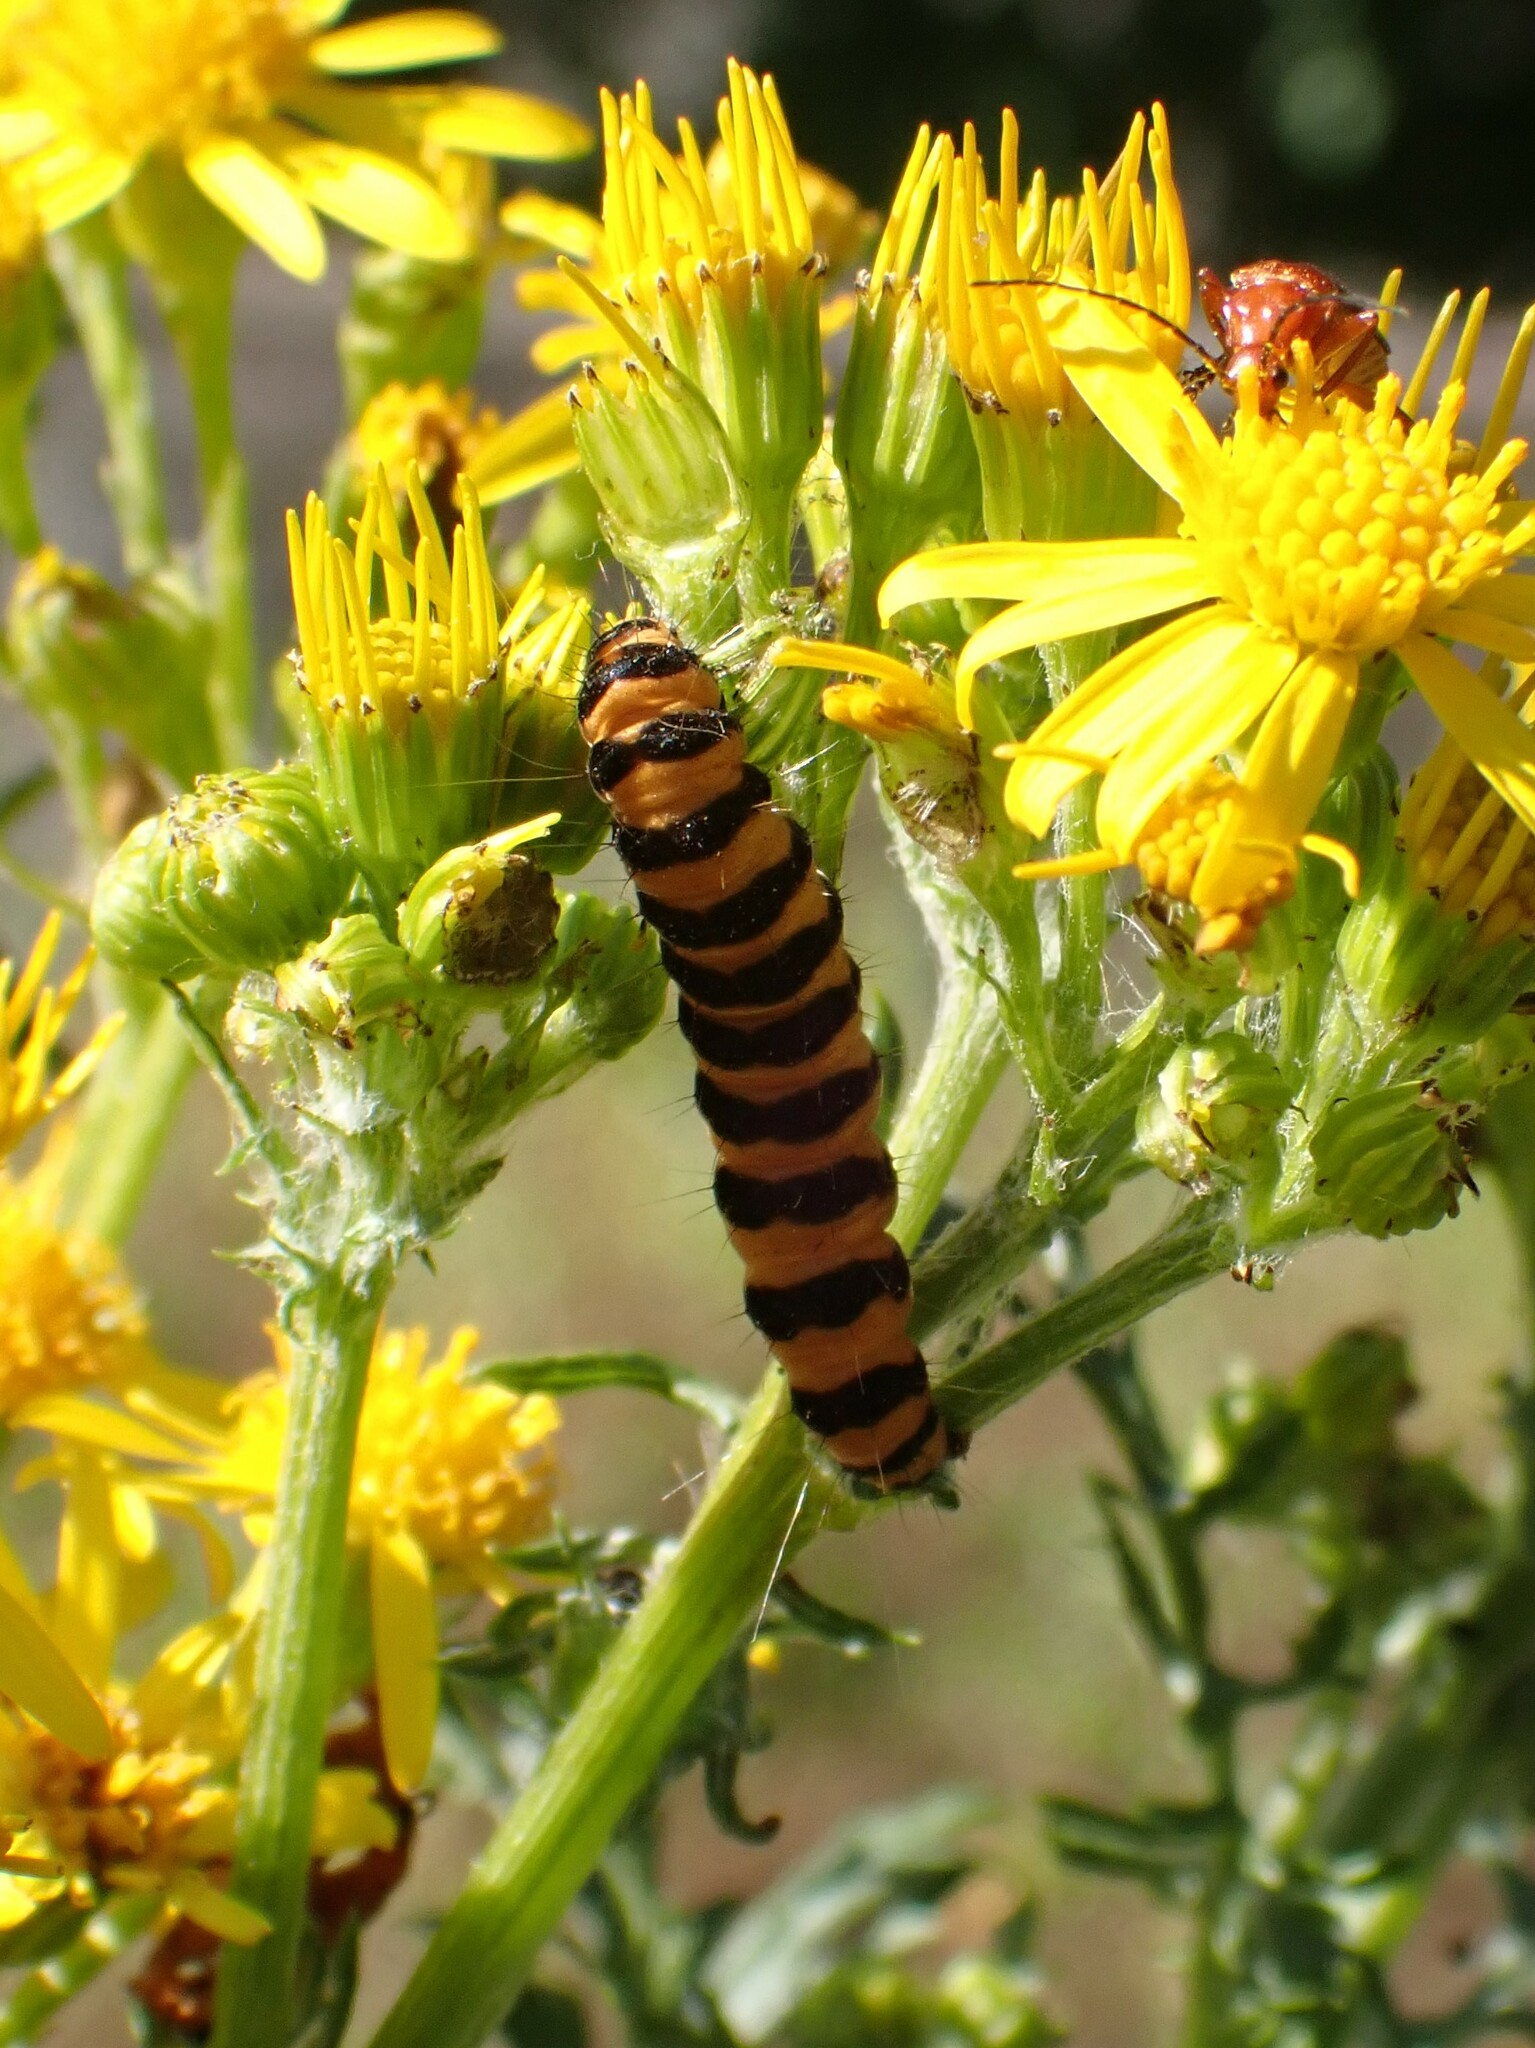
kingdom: Animalia
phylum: Arthropoda
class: Insecta
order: Lepidoptera
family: Erebidae
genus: Tyria
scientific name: Tyria jacobaeae
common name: Cinnabar
